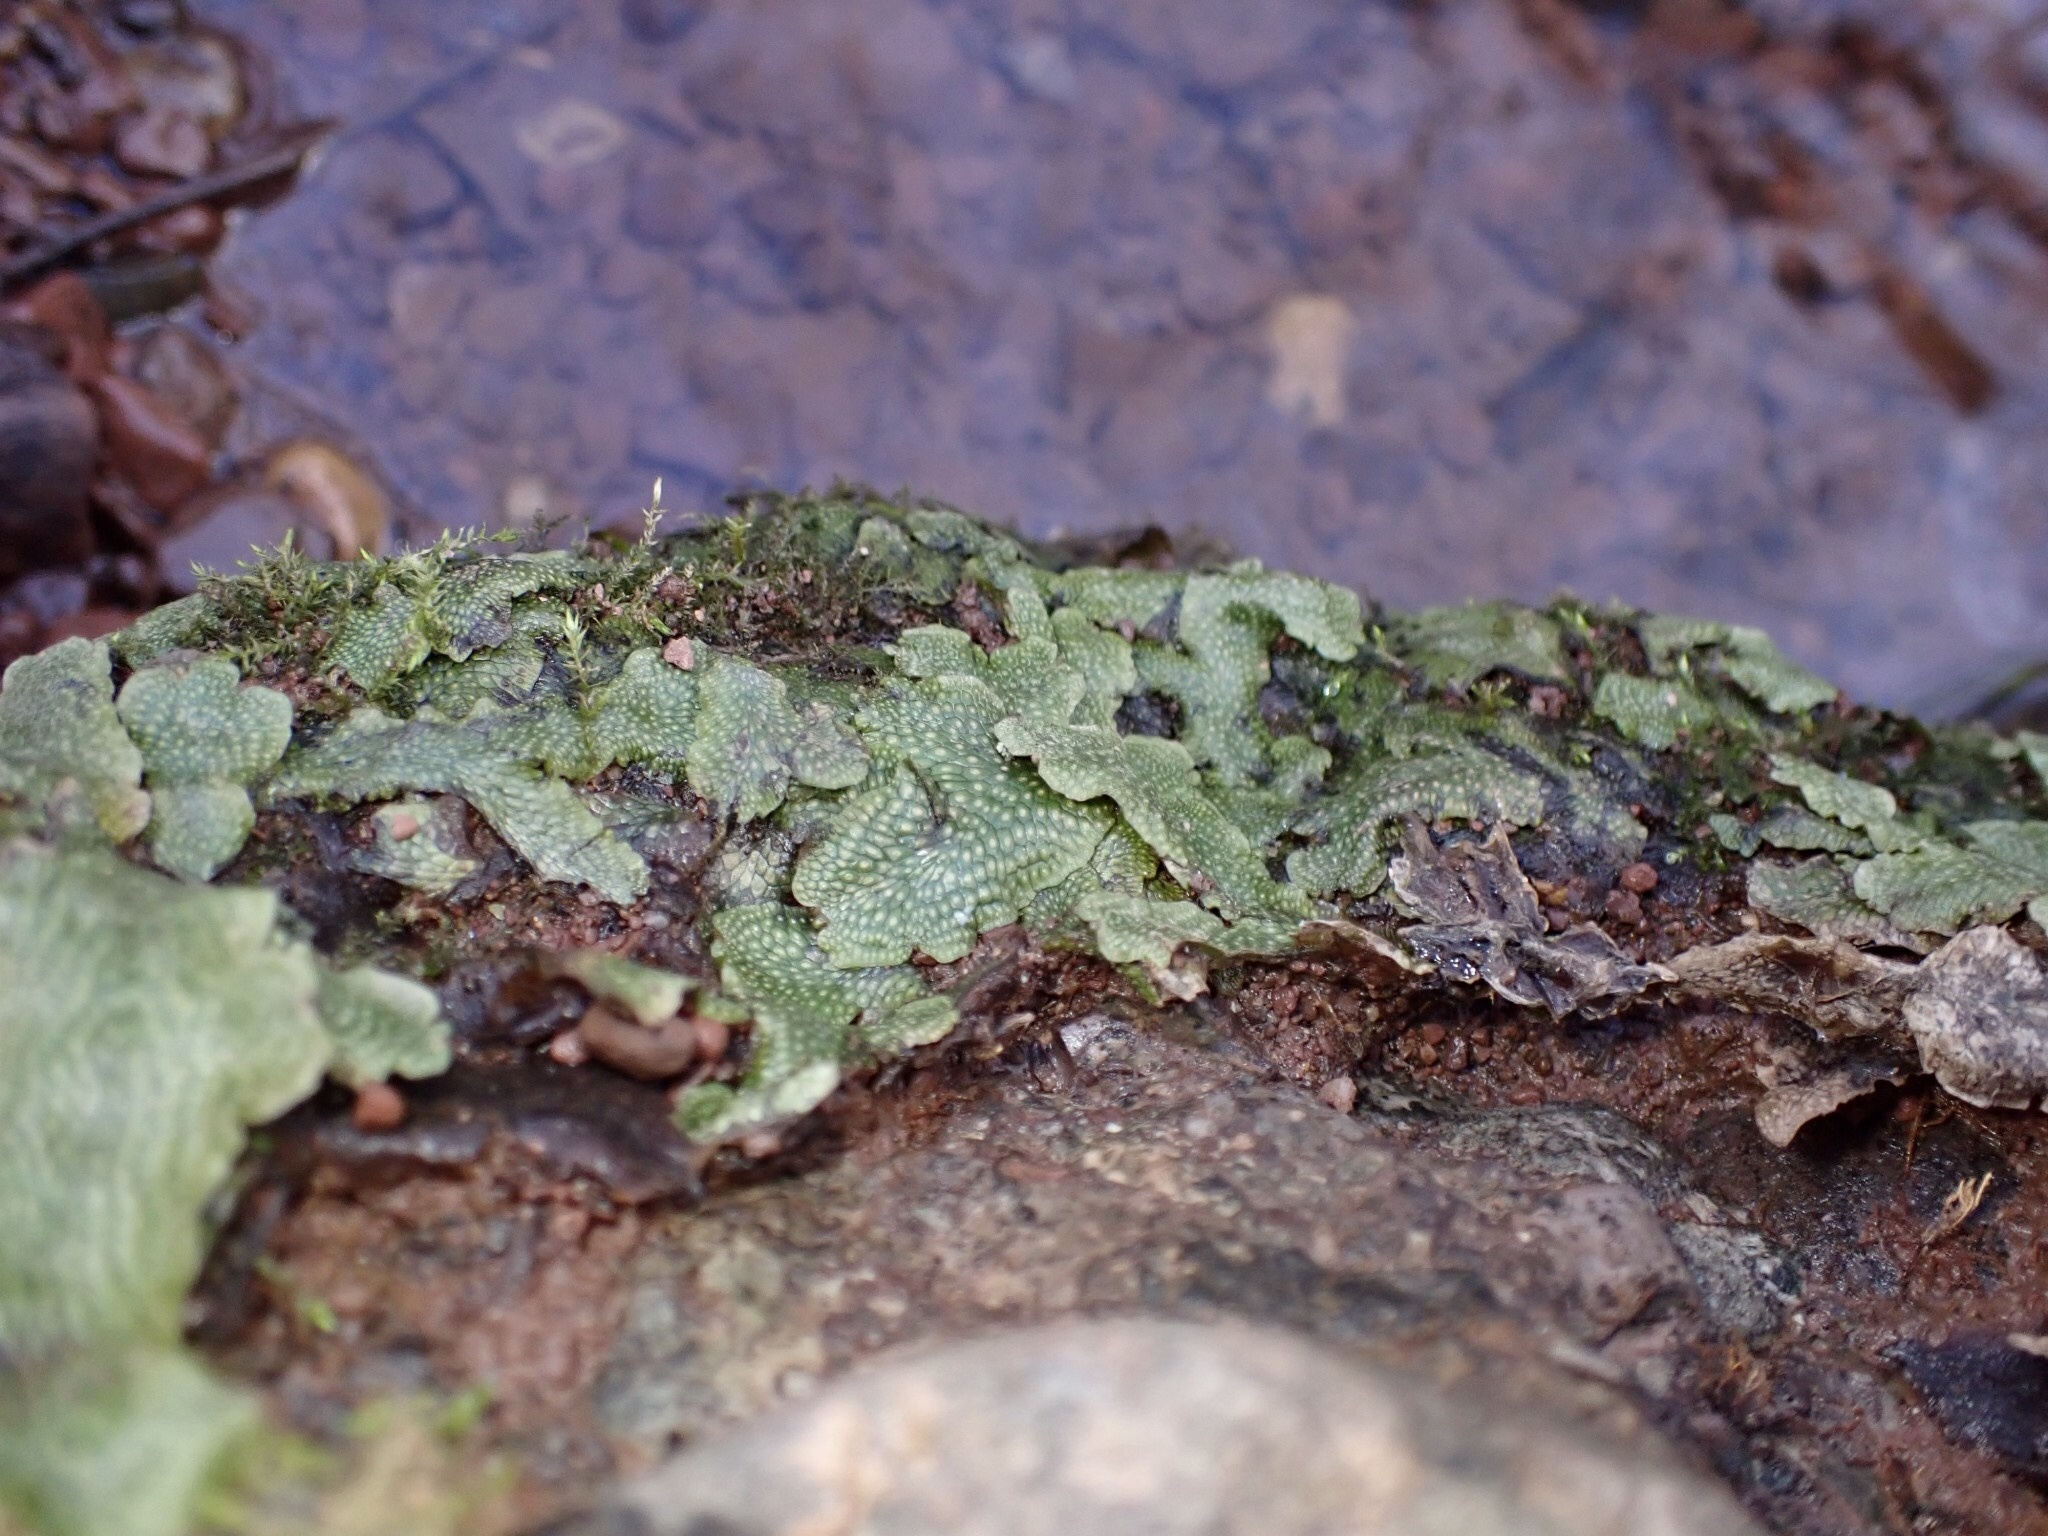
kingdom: Plantae
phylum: Marchantiophyta
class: Marchantiopsida
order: Marchantiales
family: Conocephalaceae
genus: Conocephalum
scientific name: Conocephalum salebrosum
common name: Cat-tongue liverwort
